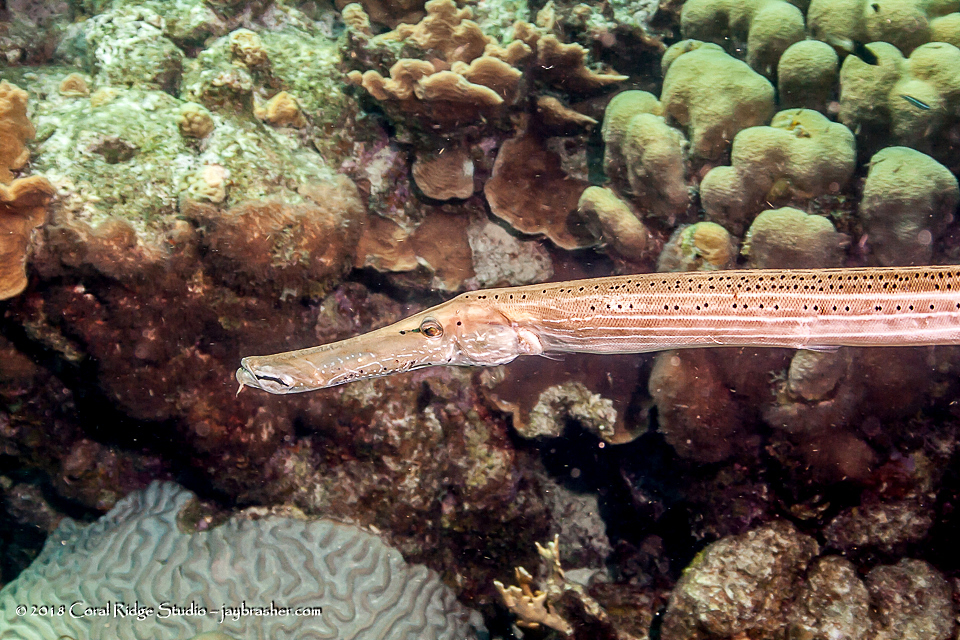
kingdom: Animalia
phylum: Chordata
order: Syngnathiformes
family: Aulostomidae
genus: Aulostomus
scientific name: Aulostomus maculatus
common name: West atlantic trumpetfish
